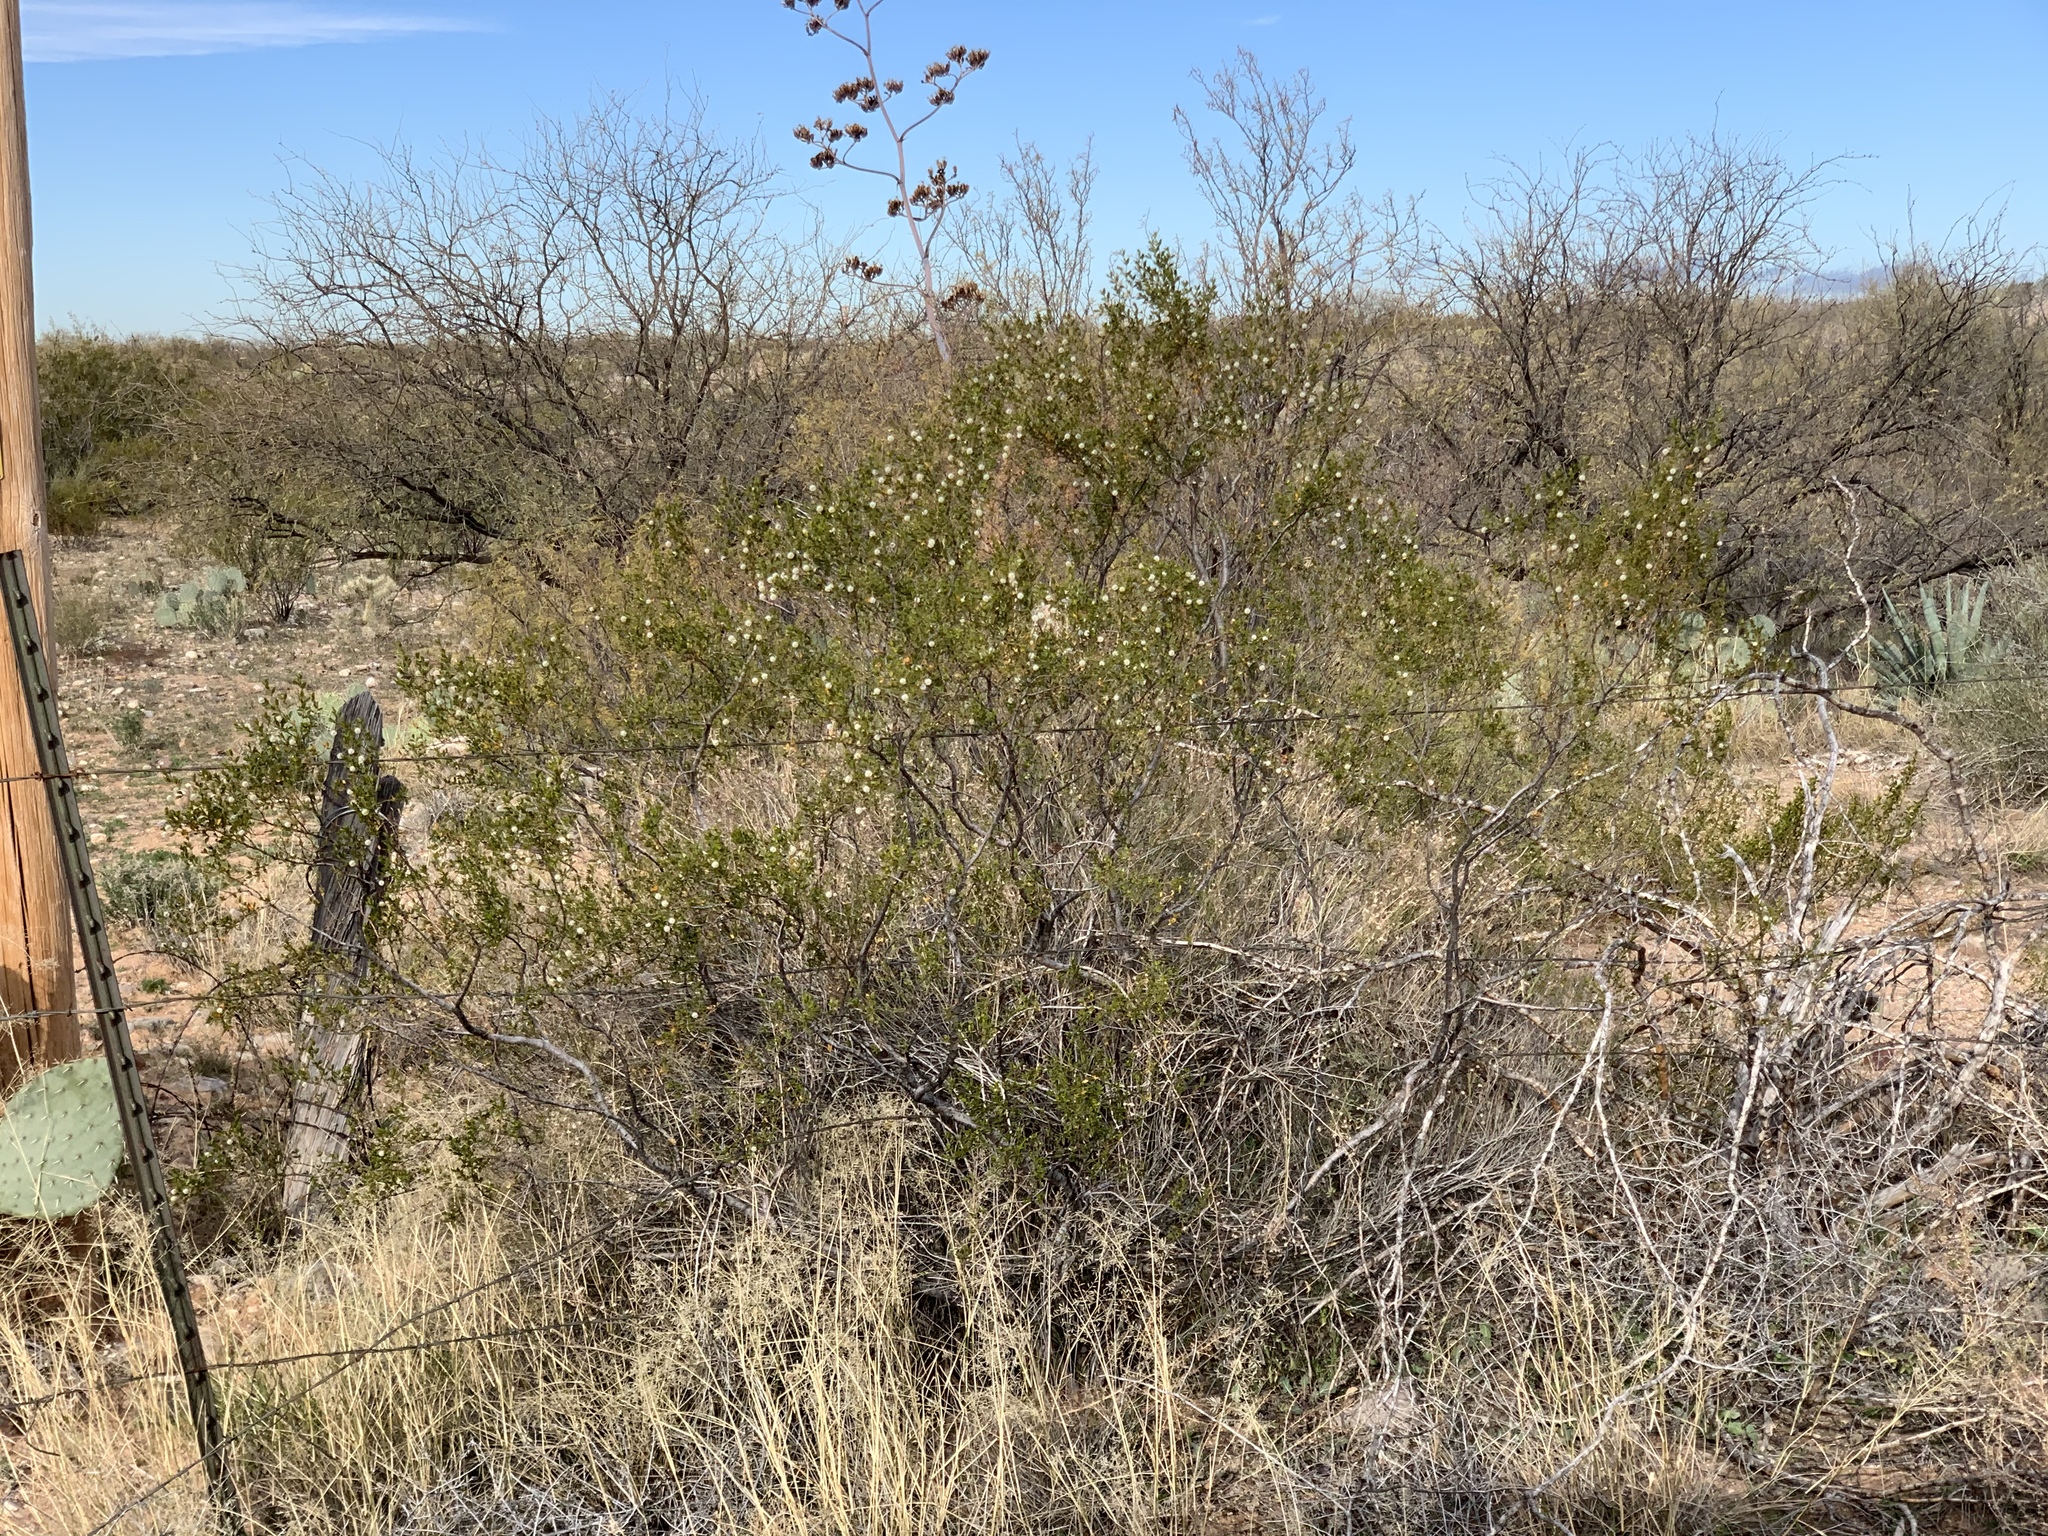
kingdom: Plantae
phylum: Tracheophyta
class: Magnoliopsida
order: Zygophyllales
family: Zygophyllaceae
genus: Larrea
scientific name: Larrea tridentata
